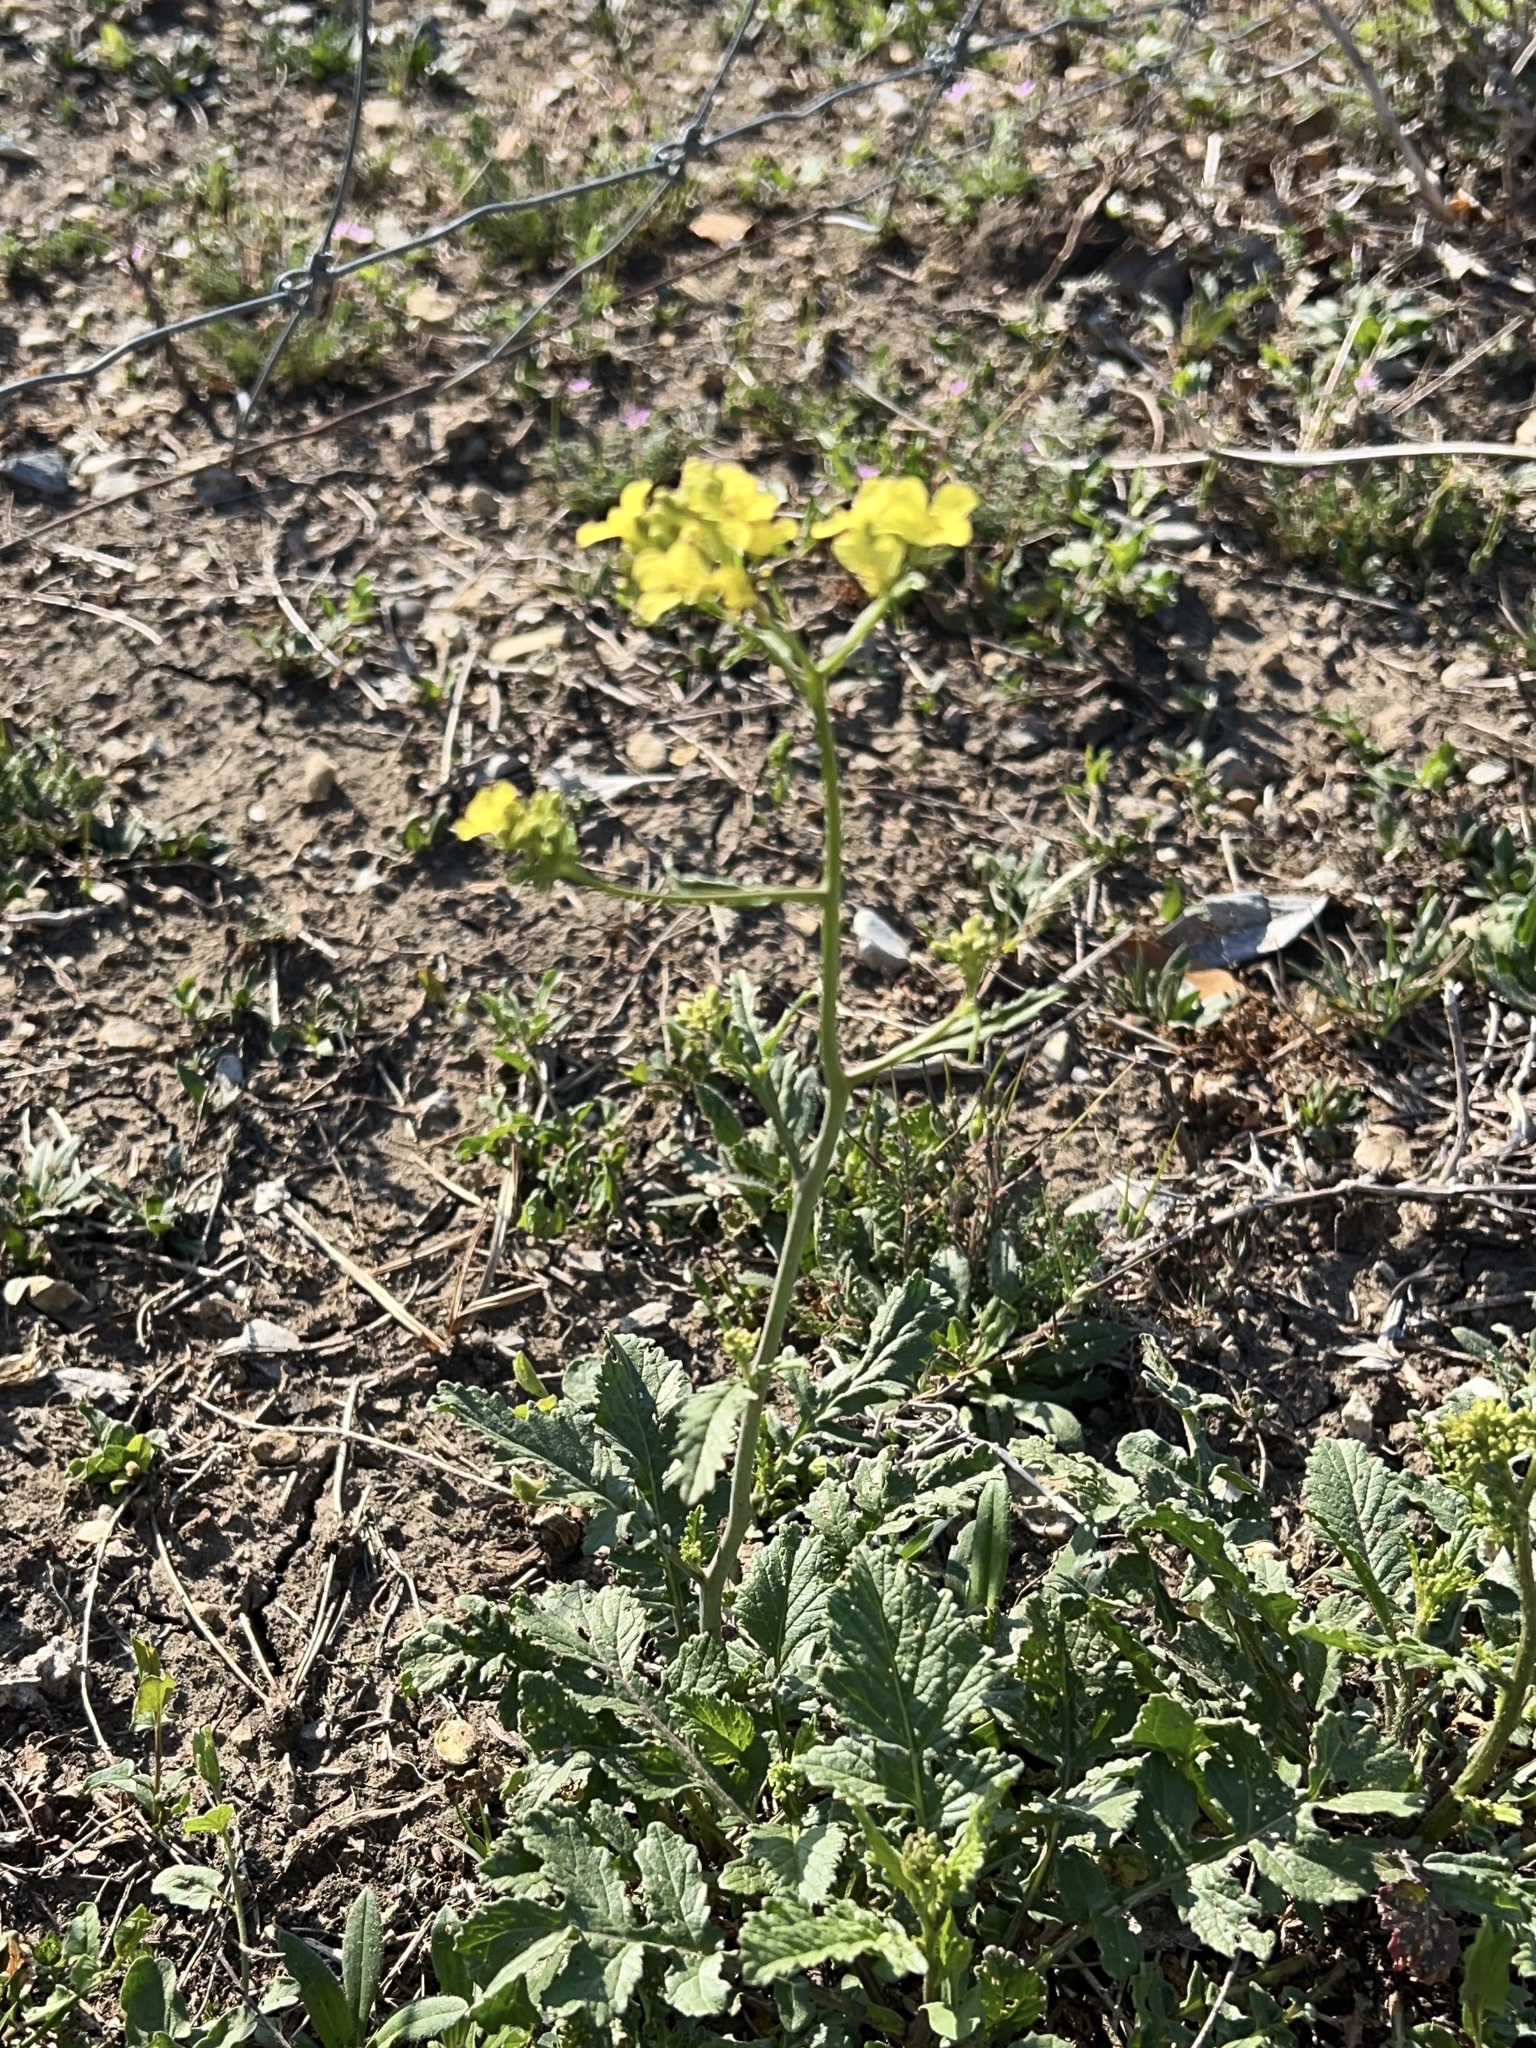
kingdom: Plantae
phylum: Tracheophyta
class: Magnoliopsida
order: Brassicales
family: Brassicaceae
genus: Rapistrum
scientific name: Rapistrum rugosum
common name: Annual bastardcabbage
